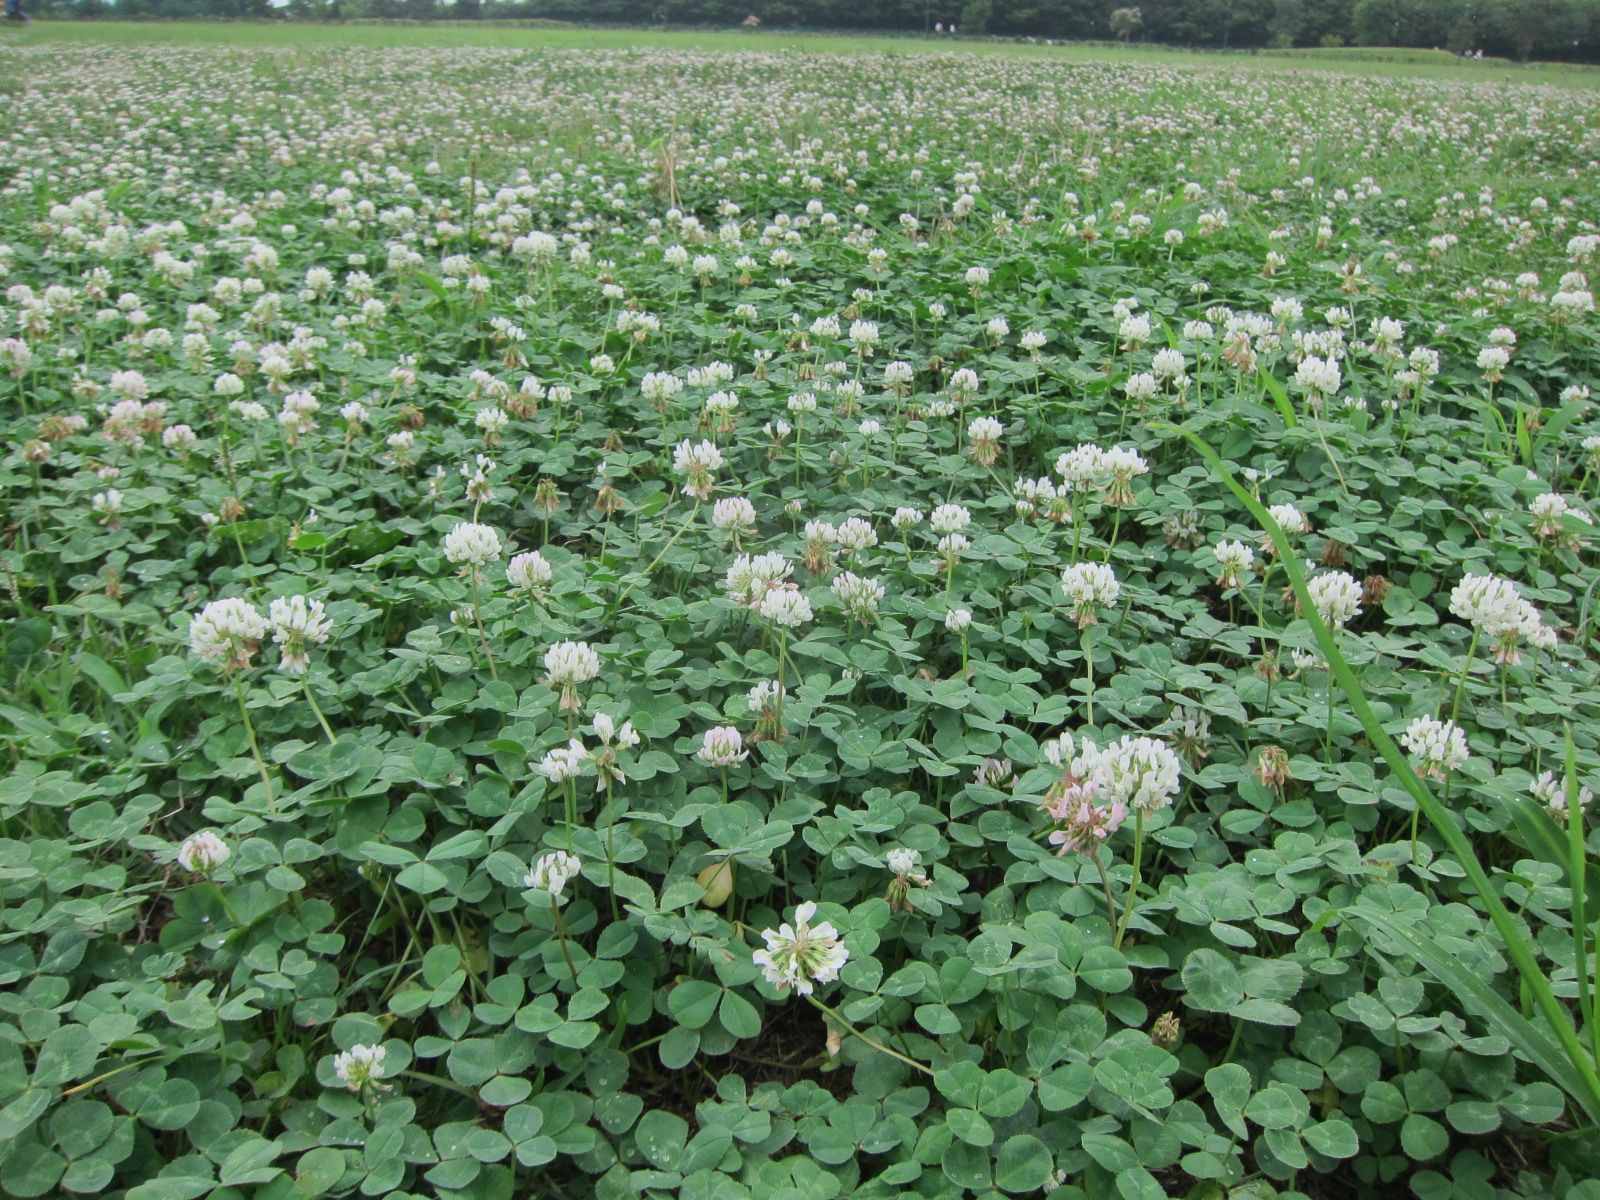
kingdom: Plantae
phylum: Tracheophyta
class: Magnoliopsida
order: Fabales
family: Fabaceae
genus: Trifolium
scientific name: Trifolium repens
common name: White clover
